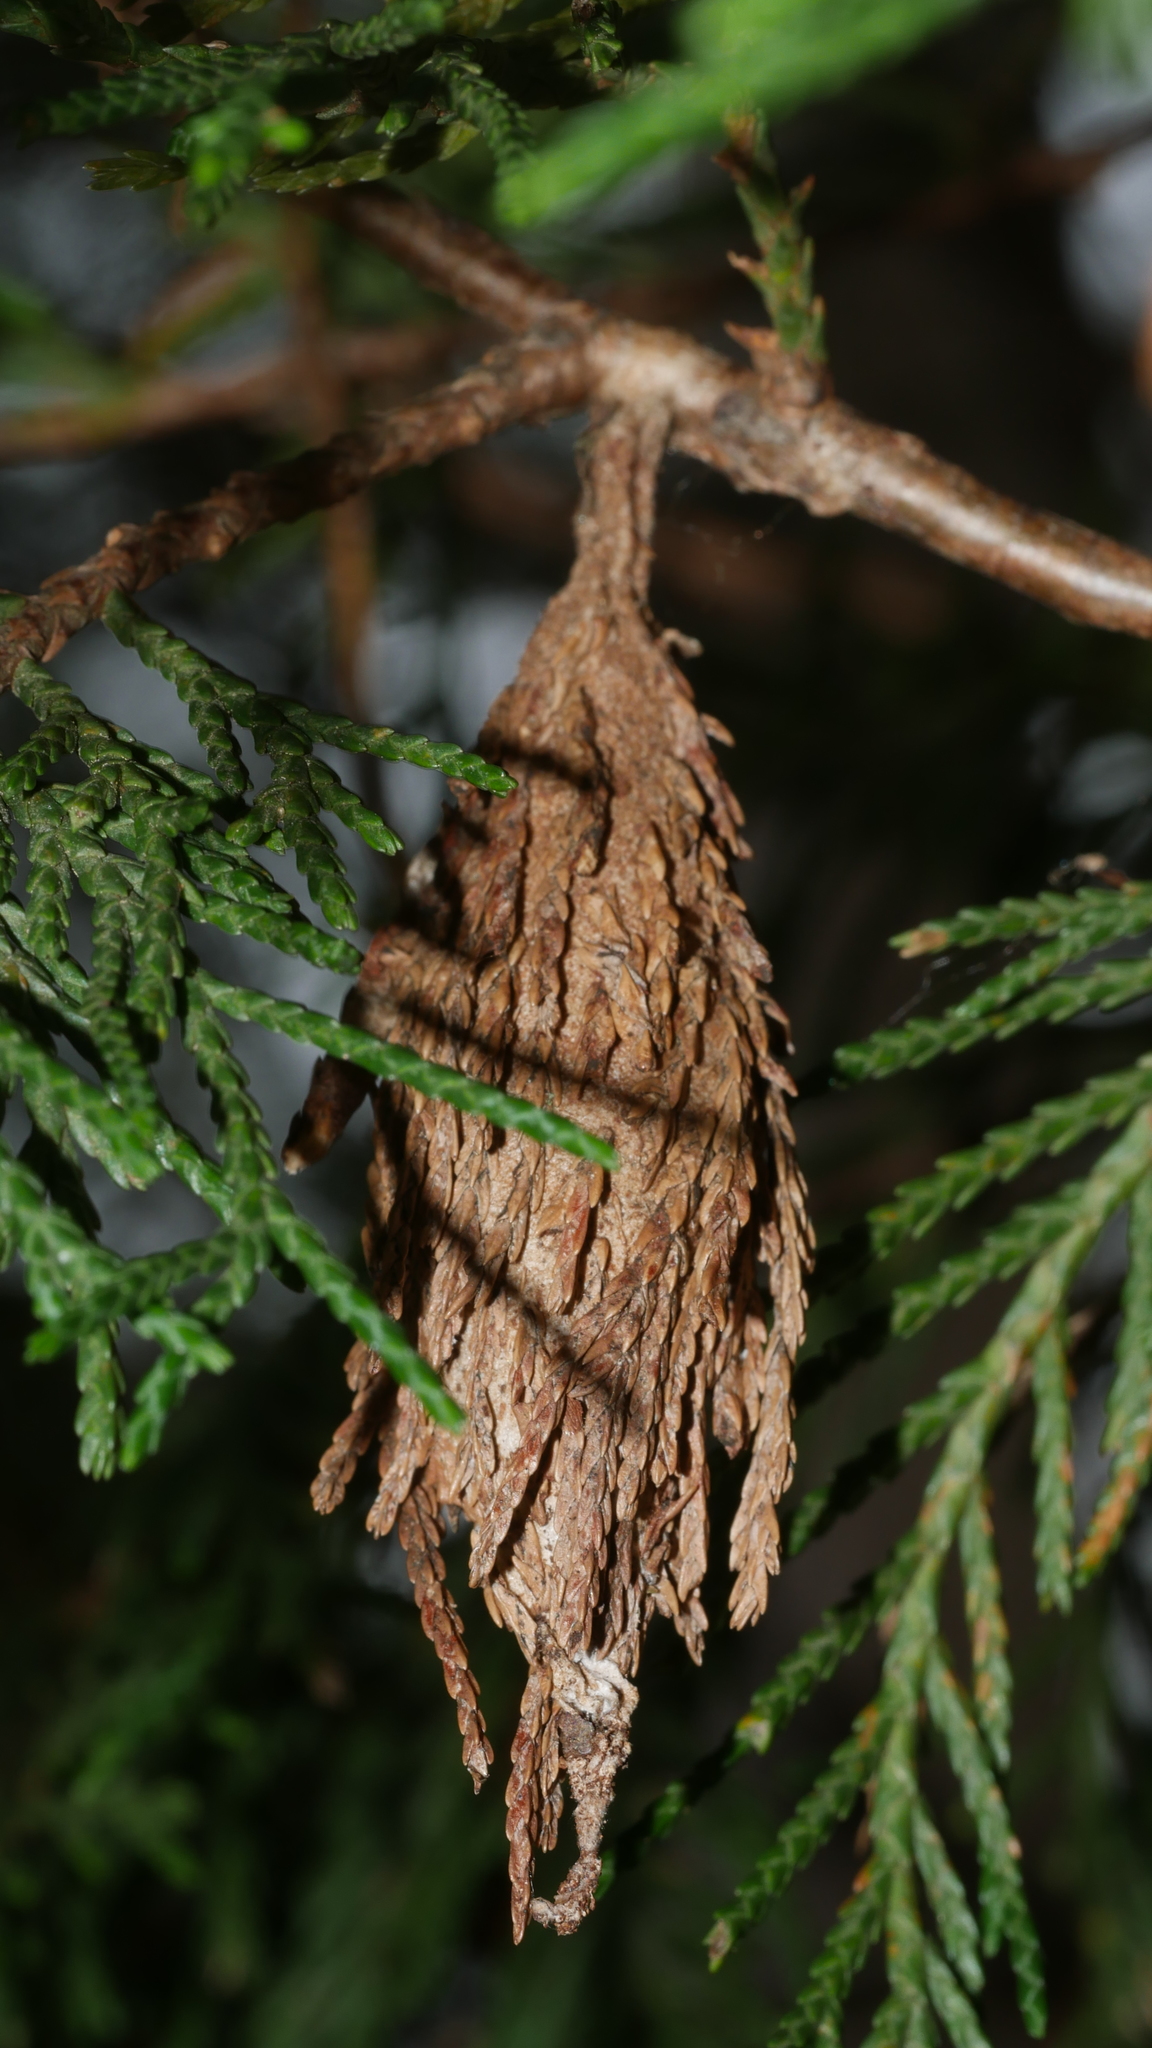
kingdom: Animalia
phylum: Arthropoda
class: Insecta
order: Lepidoptera
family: Psychidae
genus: Thyridopteryx
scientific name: Thyridopteryx ephemeraeformis
